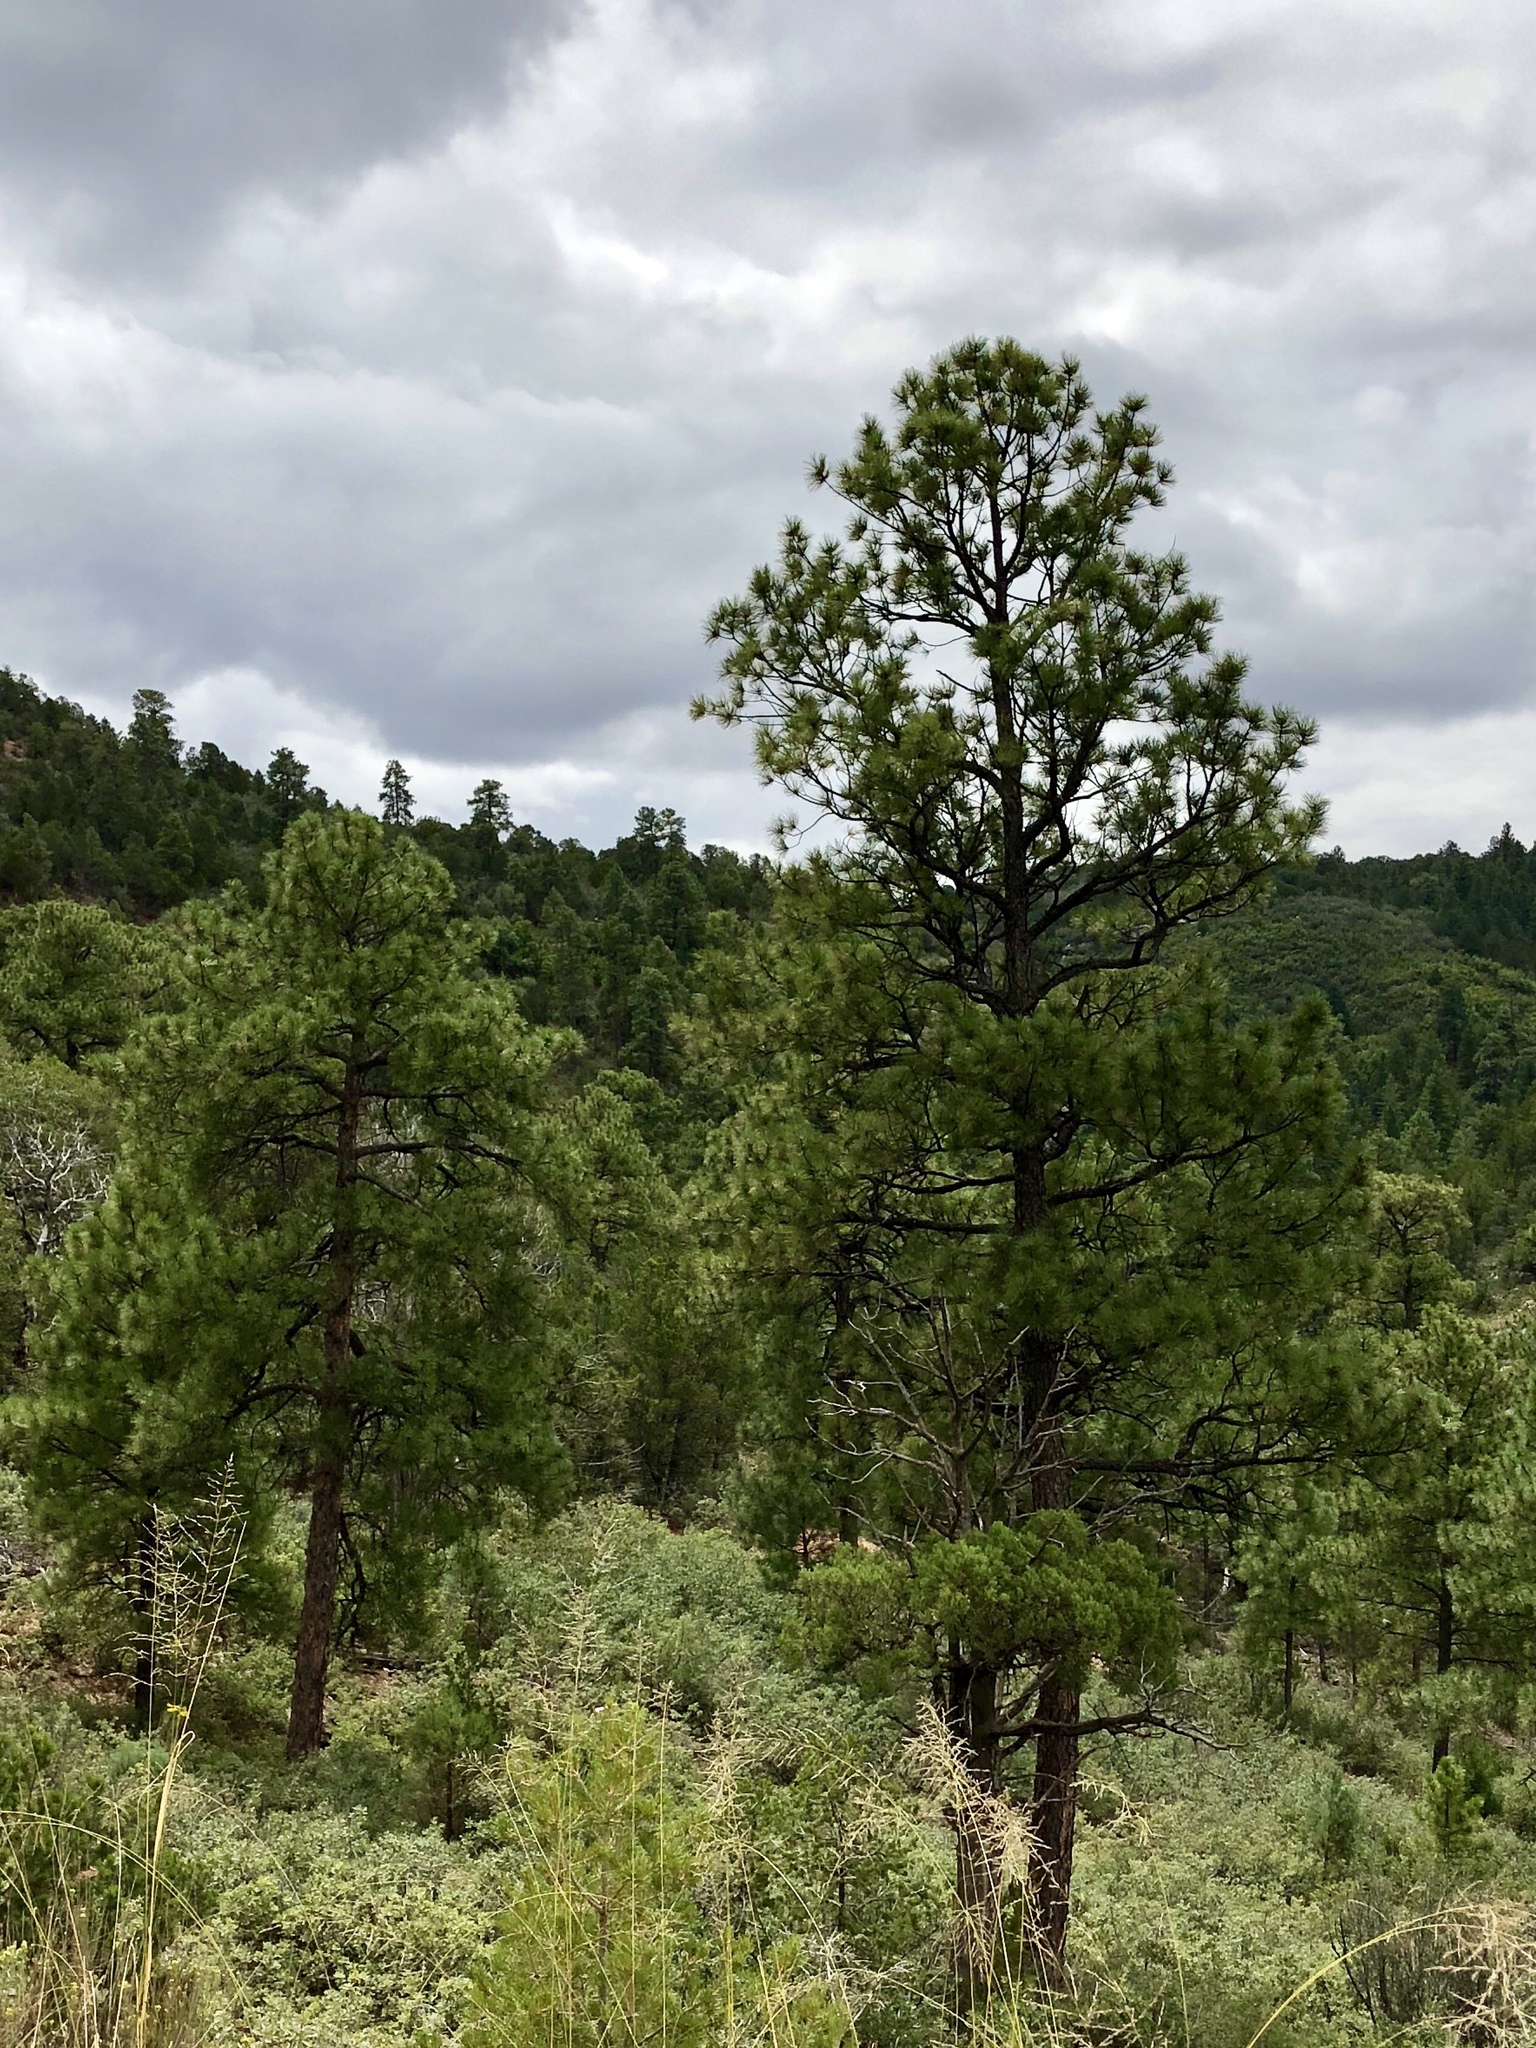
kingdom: Plantae
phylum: Tracheophyta
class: Pinopsida
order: Pinales
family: Pinaceae
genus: Pinus
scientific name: Pinus ponderosa
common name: Western yellow-pine
